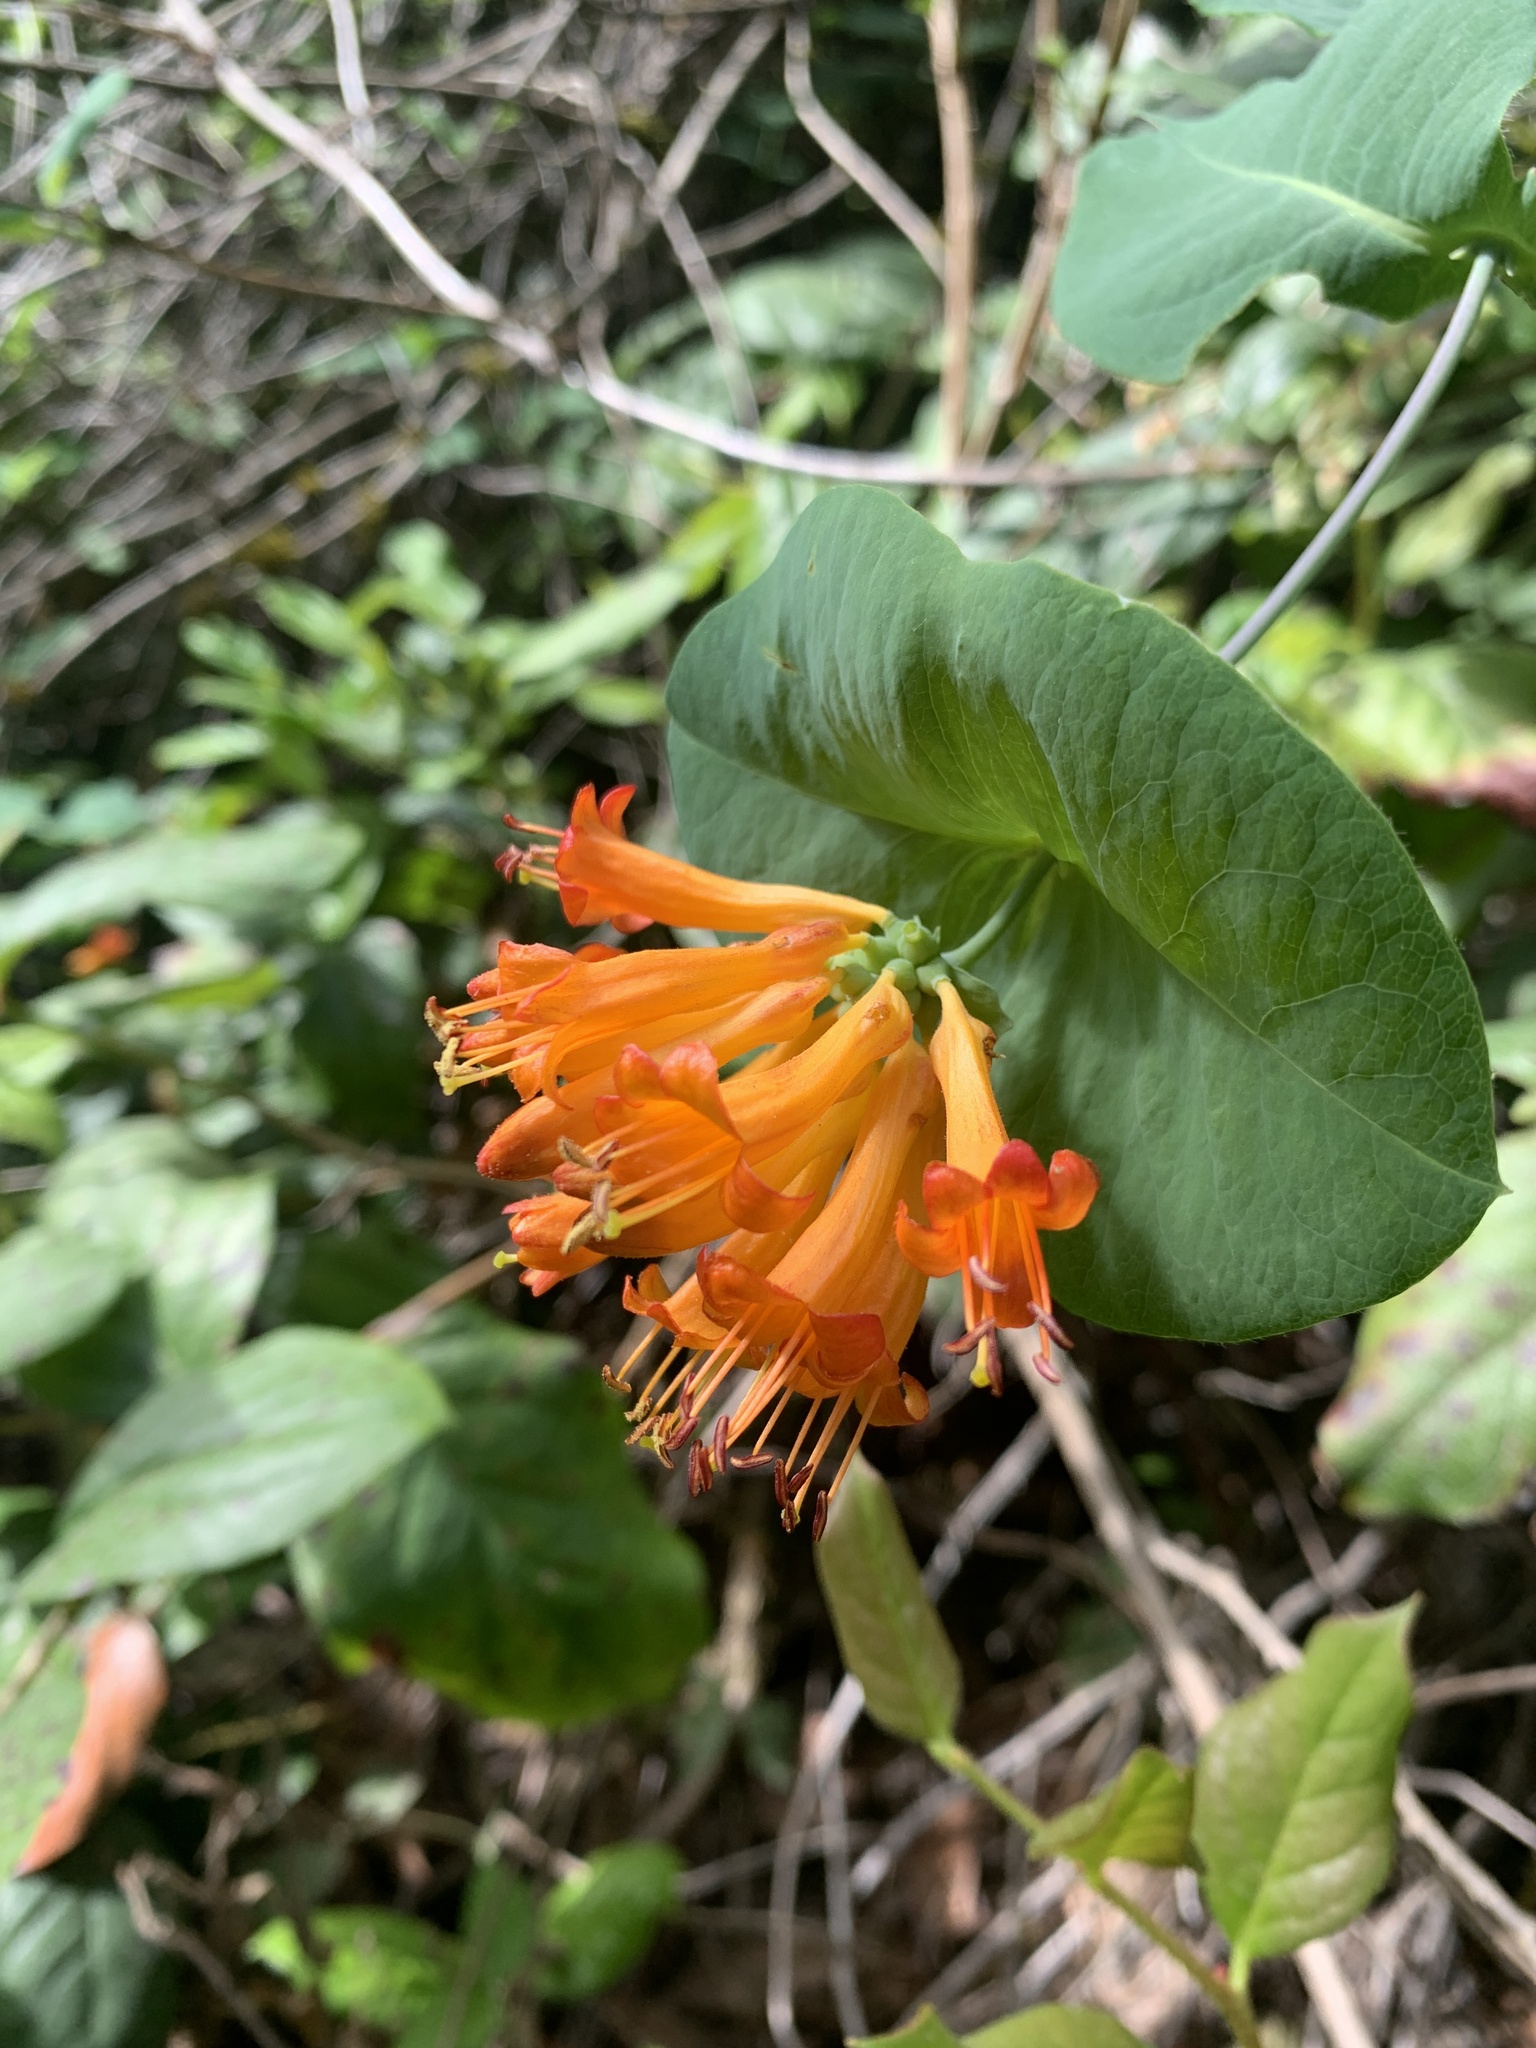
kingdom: Plantae
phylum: Tracheophyta
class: Magnoliopsida
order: Dipsacales
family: Caprifoliaceae
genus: Lonicera
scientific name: Lonicera ciliosa
